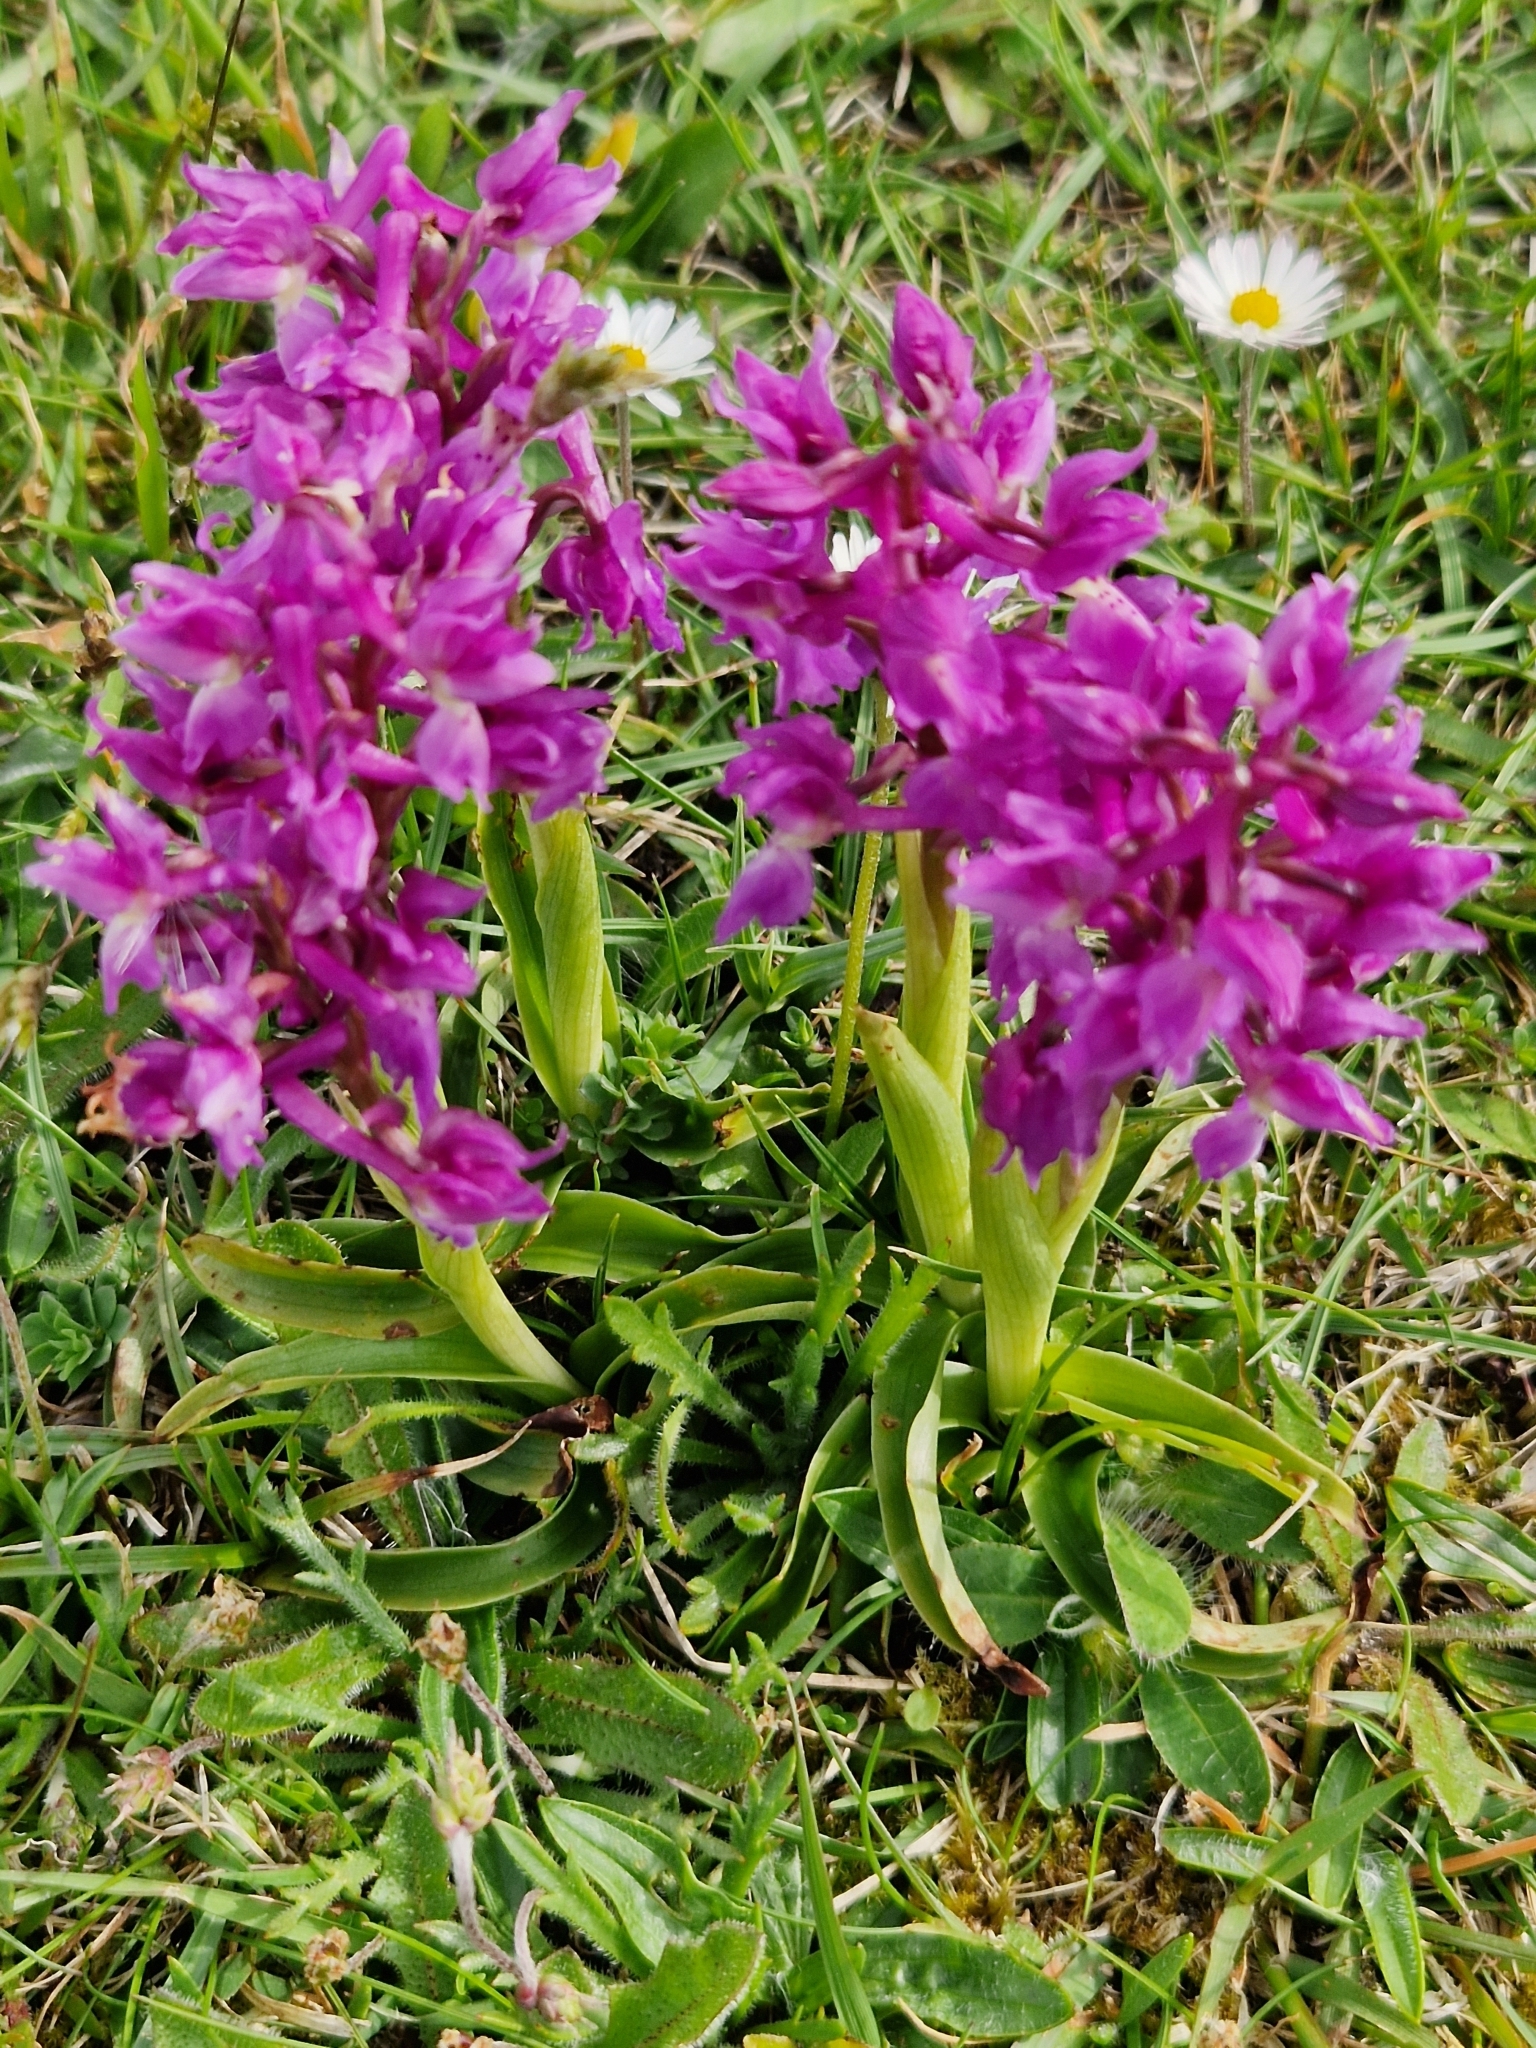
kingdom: Plantae
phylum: Tracheophyta
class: Liliopsida
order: Asparagales
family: Orchidaceae
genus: Orchis
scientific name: Orchis mascula
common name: Early-purple orchid
